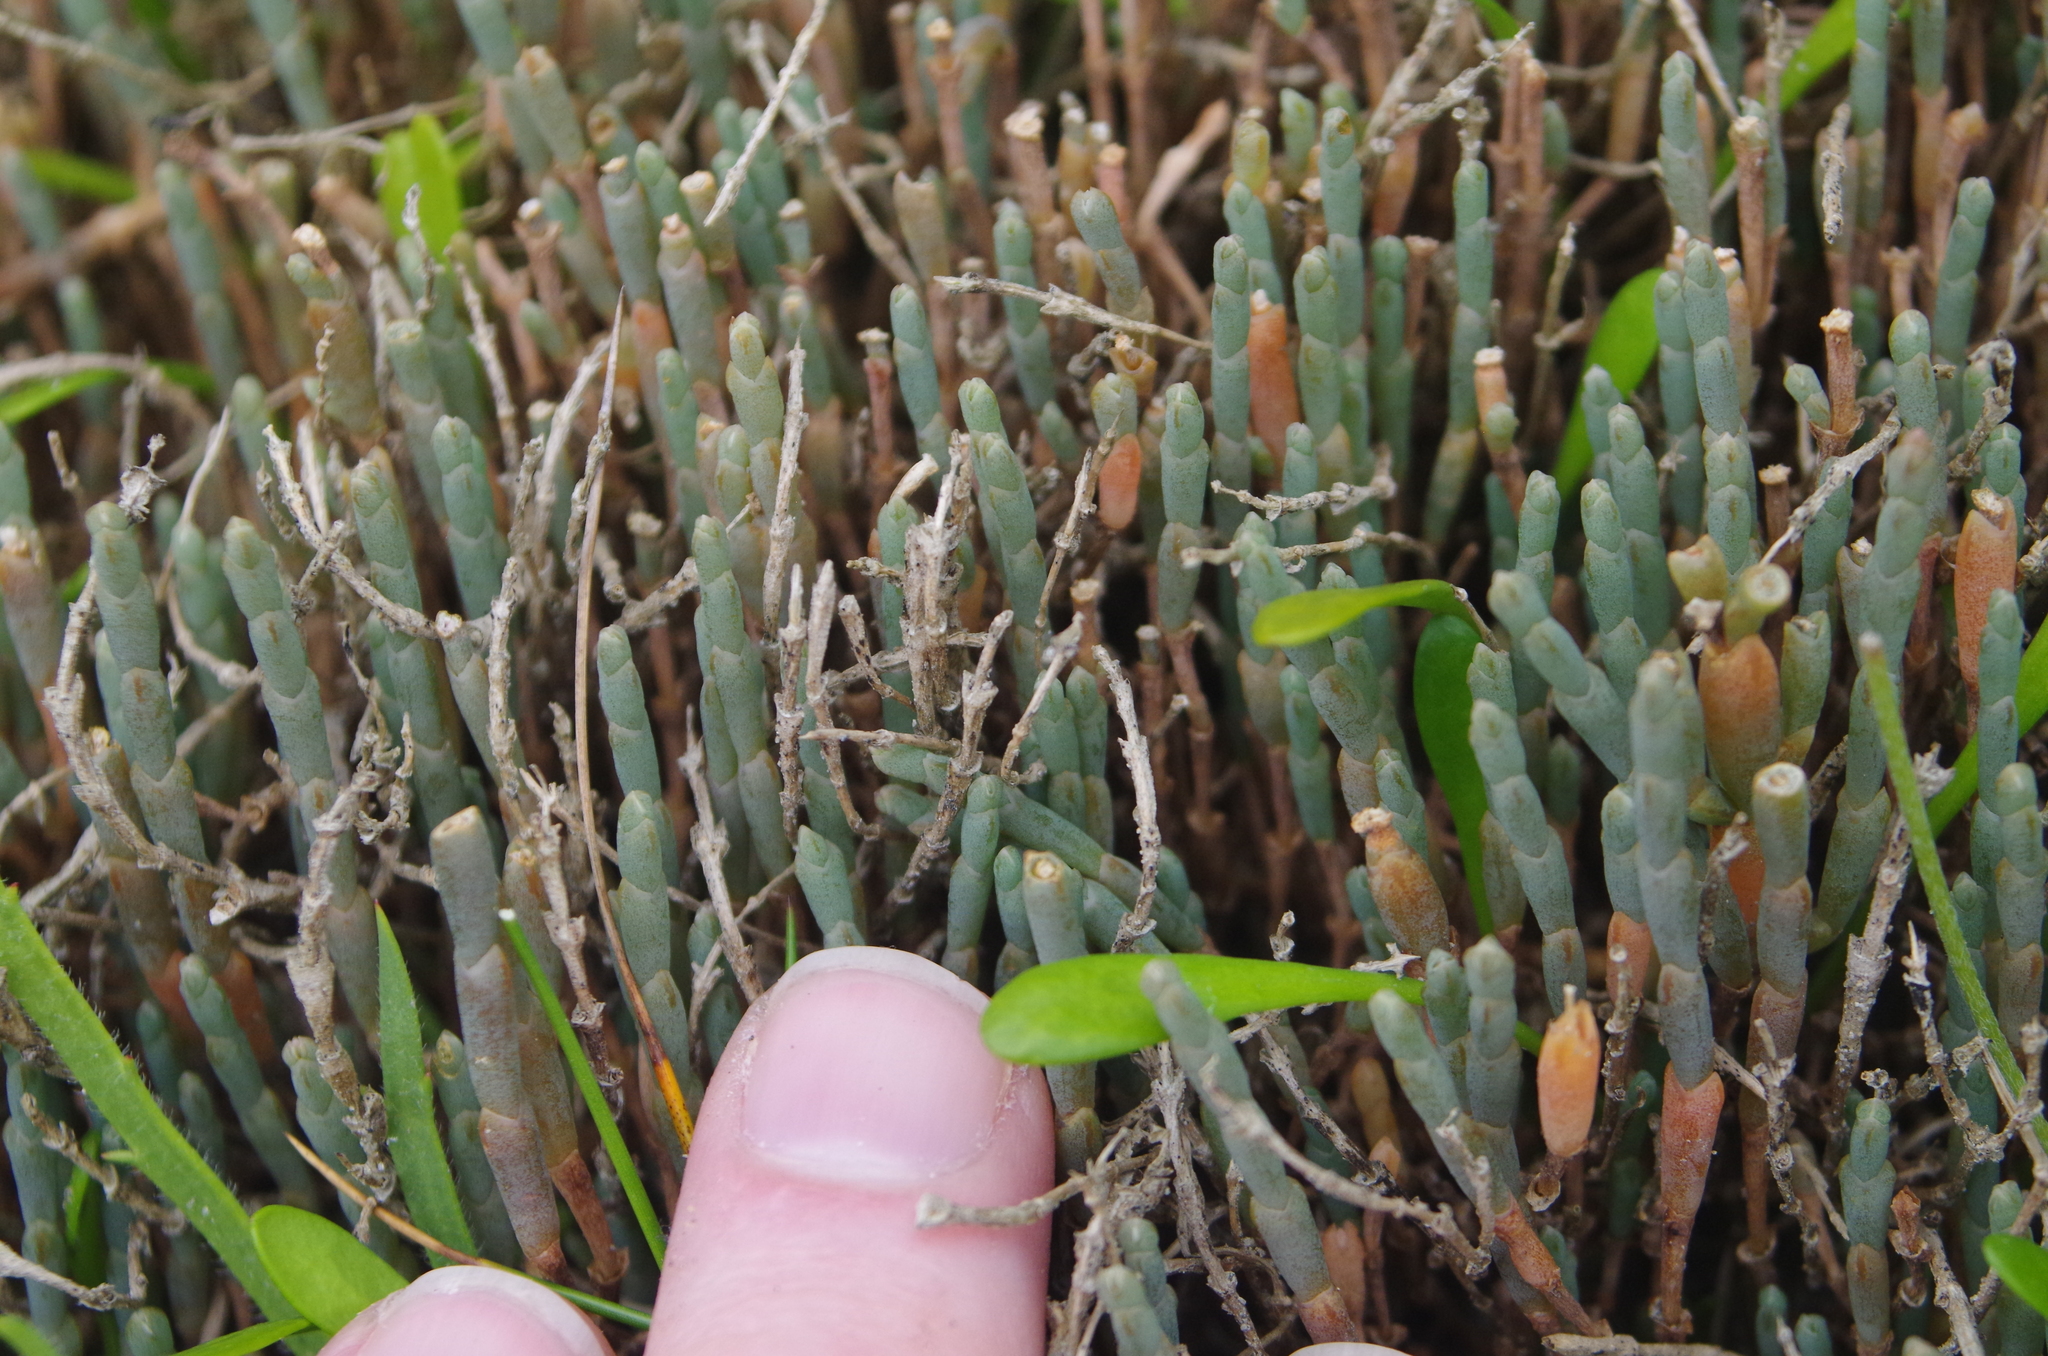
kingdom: Plantae
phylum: Tracheophyta
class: Magnoliopsida
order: Caryophyllales
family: Amaranthaceae
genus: Salicornia
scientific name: Salicornia quinqueflora
